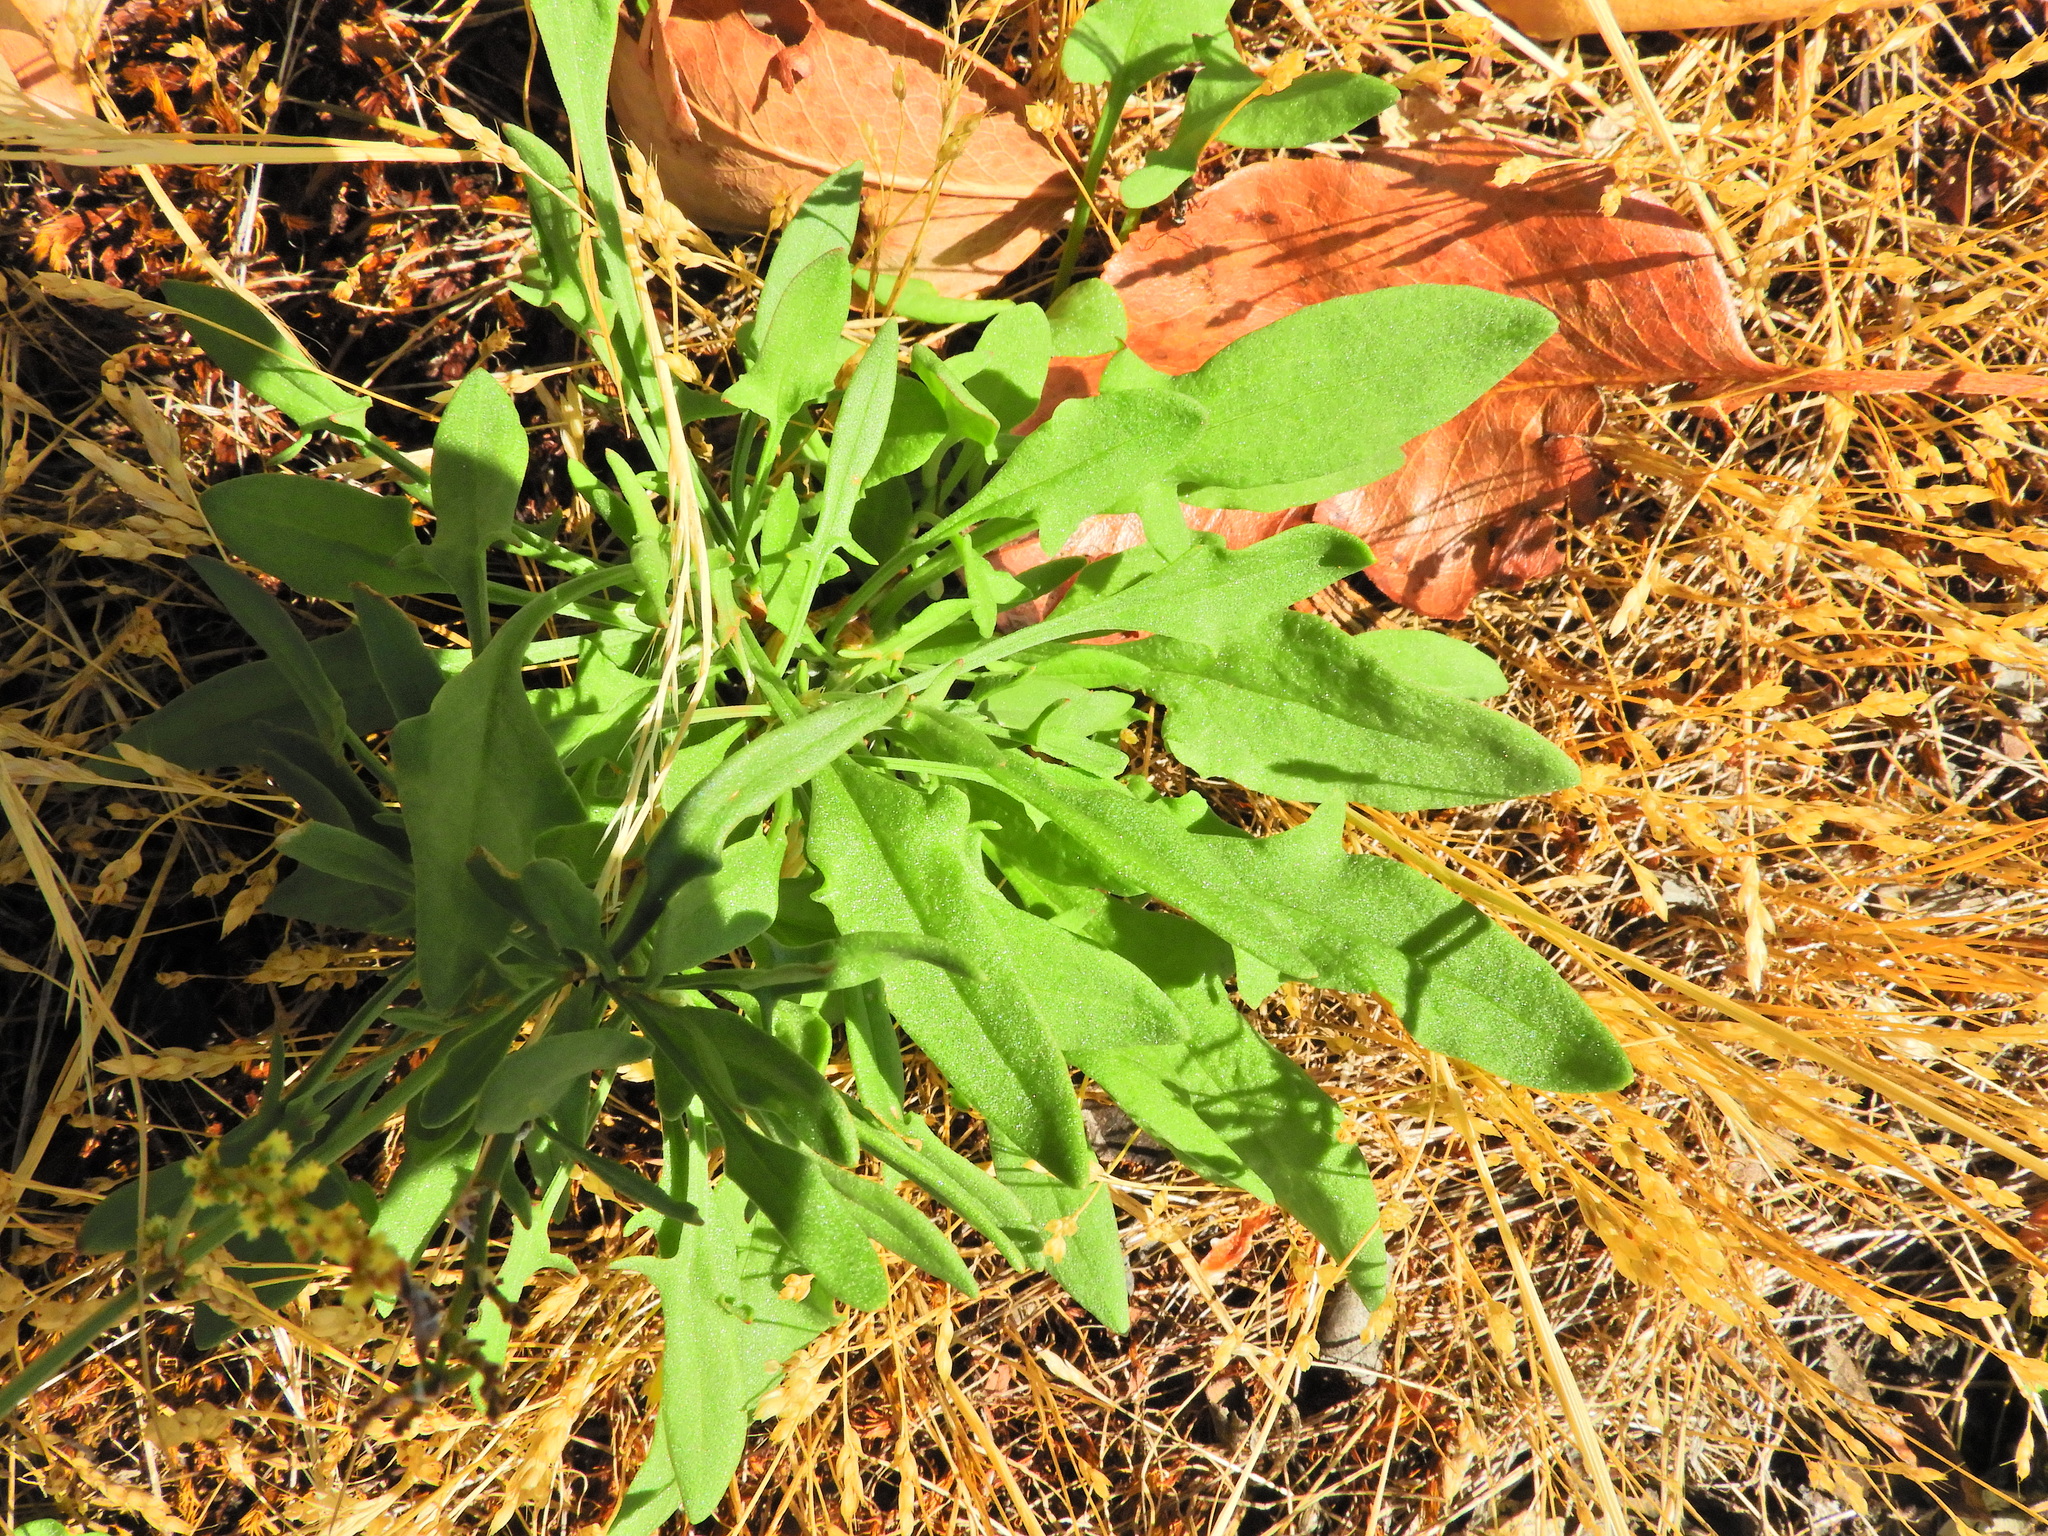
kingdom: Plantae
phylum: Tracheophyta
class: Magnoliopsida
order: Caryophyllales
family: Polygonaceae
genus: Rumex
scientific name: Rumex acetosella
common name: Common sheep sorrel
